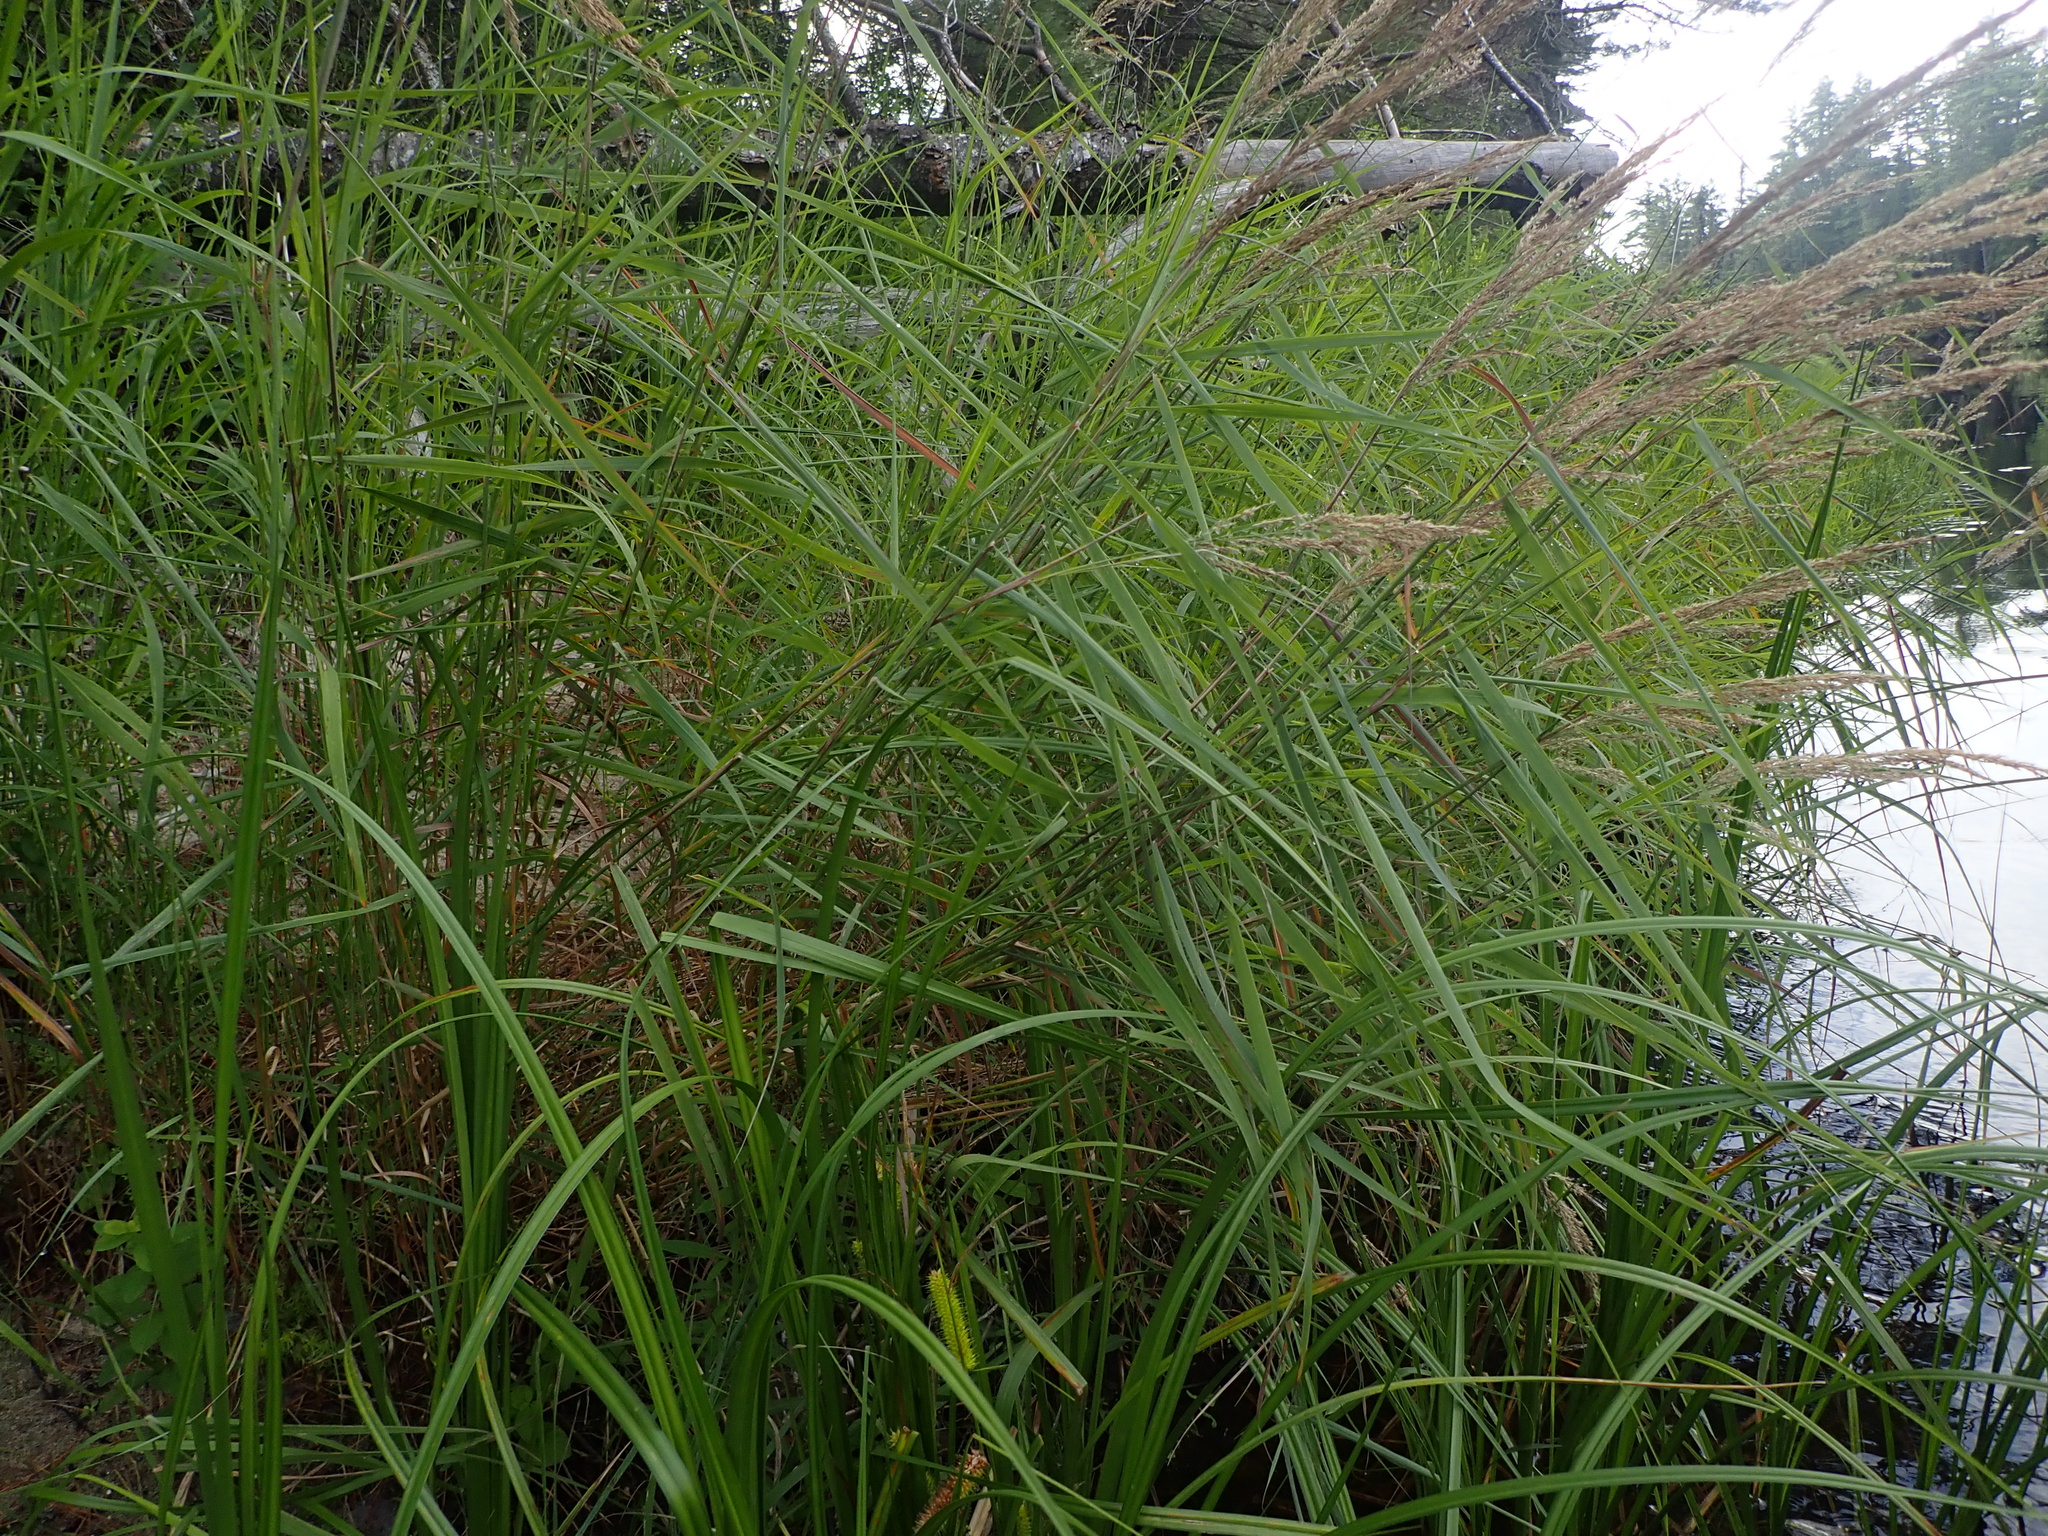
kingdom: Plantae
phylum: Tracheophyta
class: Liliopsida
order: Poales
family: Poaceae
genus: Calamagrostis
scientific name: Calamagrostis canadensis
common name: Canada bluejoint
